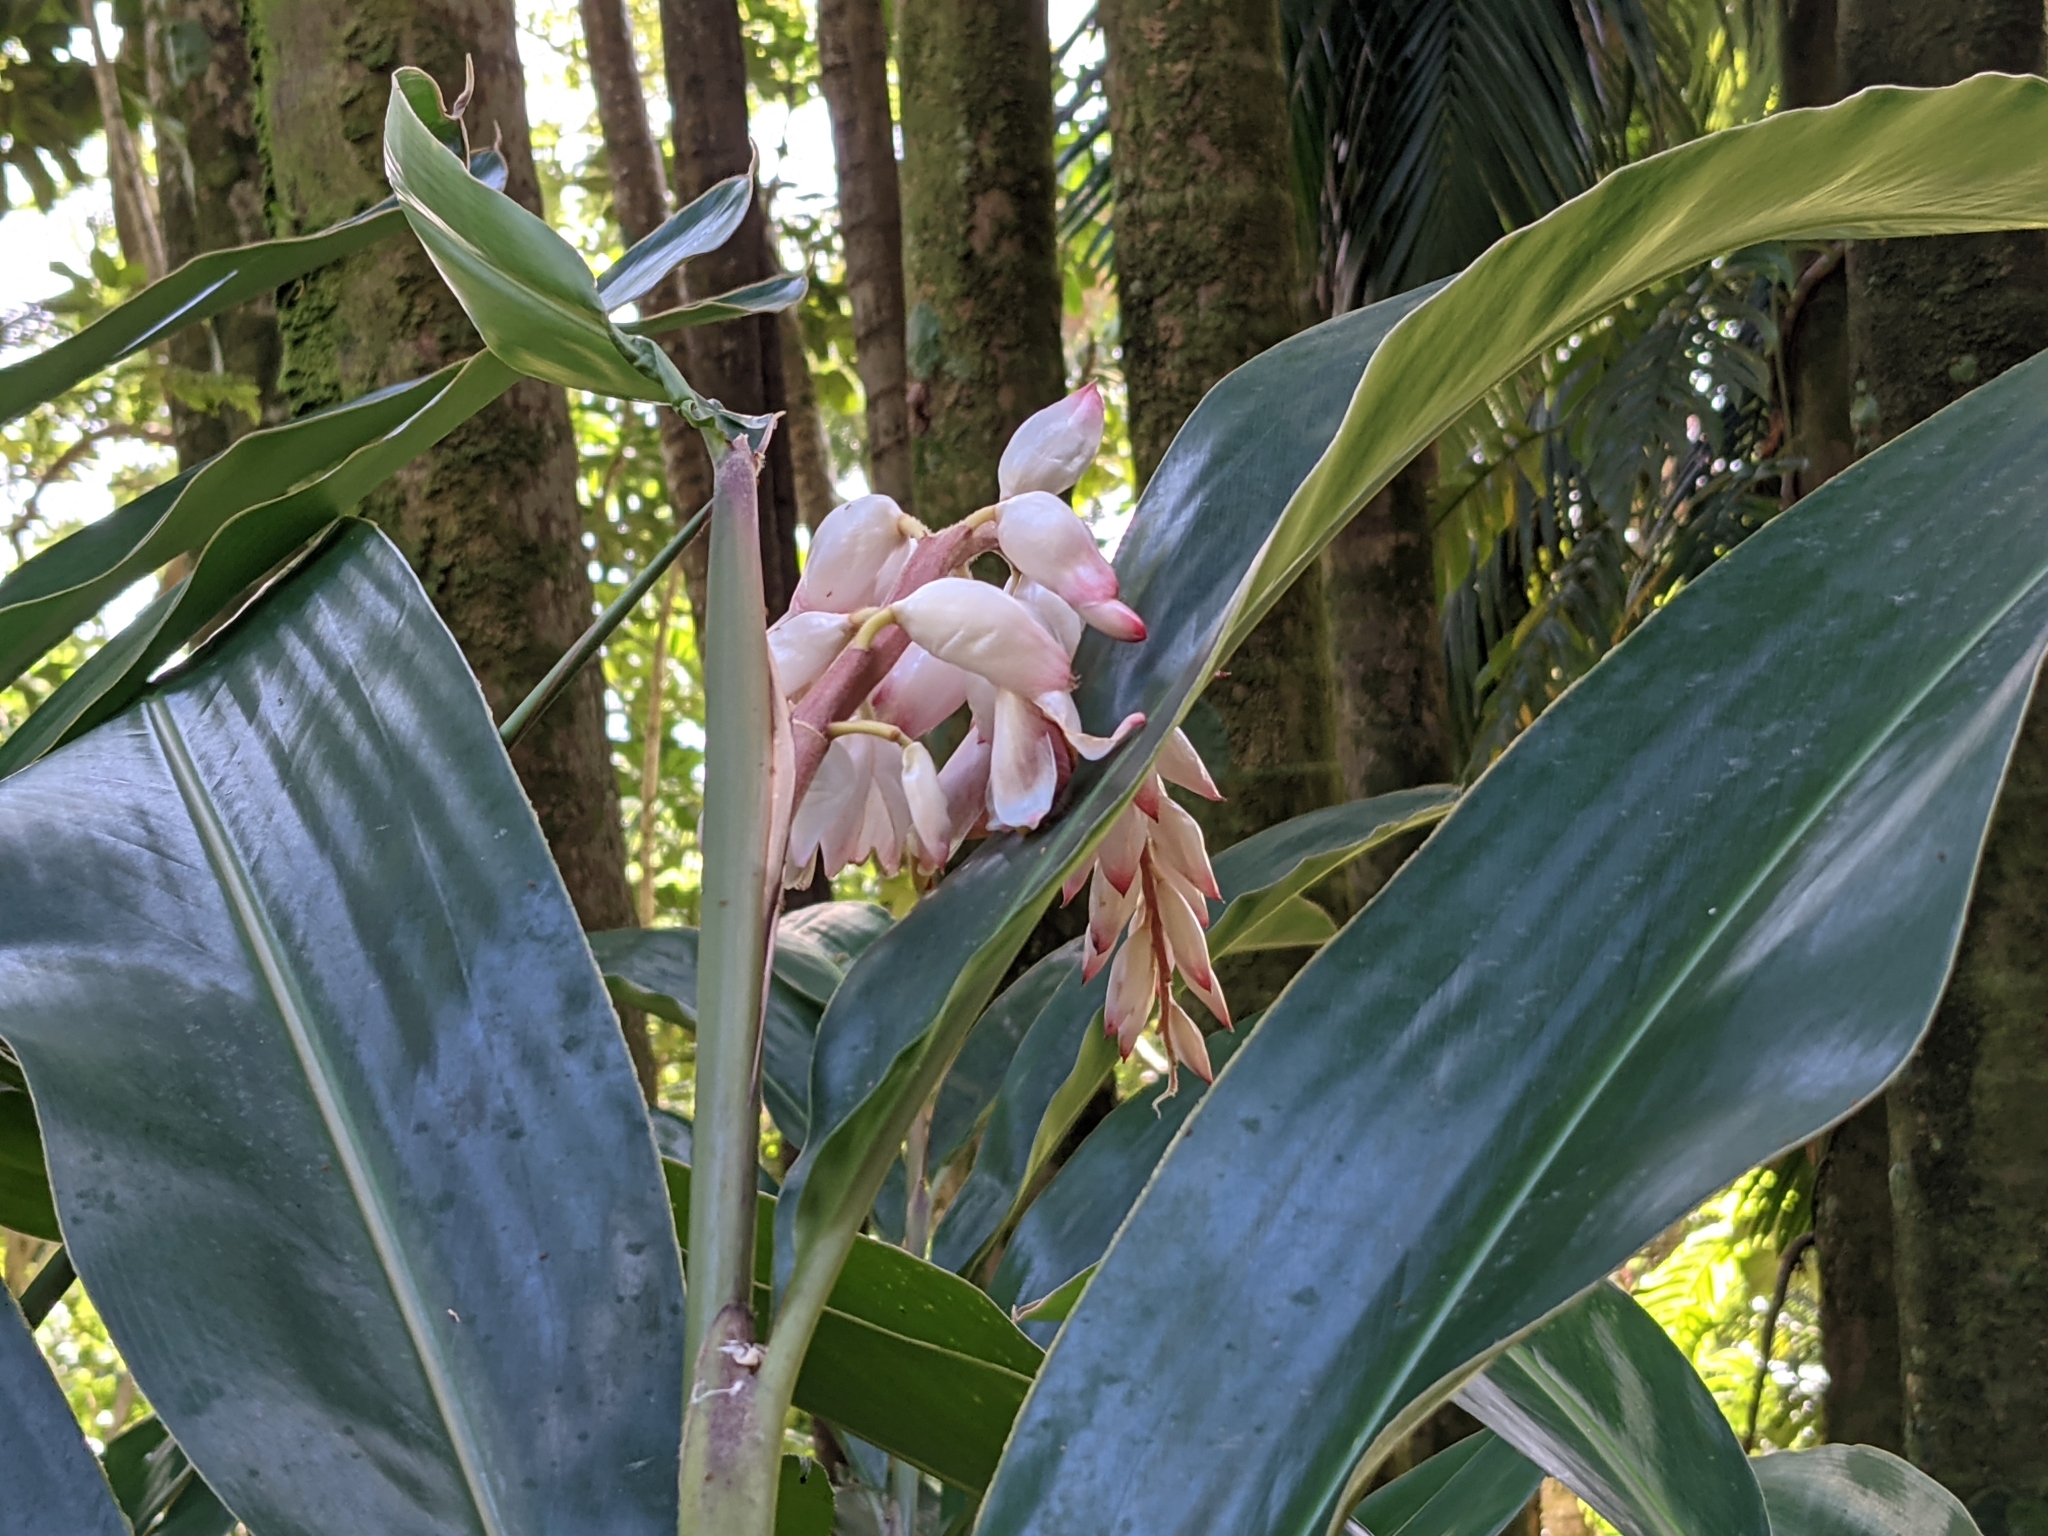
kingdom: Plantae
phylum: Tracheophyta
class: Liliopsida
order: Zingiberales
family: Zingiberaceae
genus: Alpinia
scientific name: Alpinia zerumbet
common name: Shellplant
